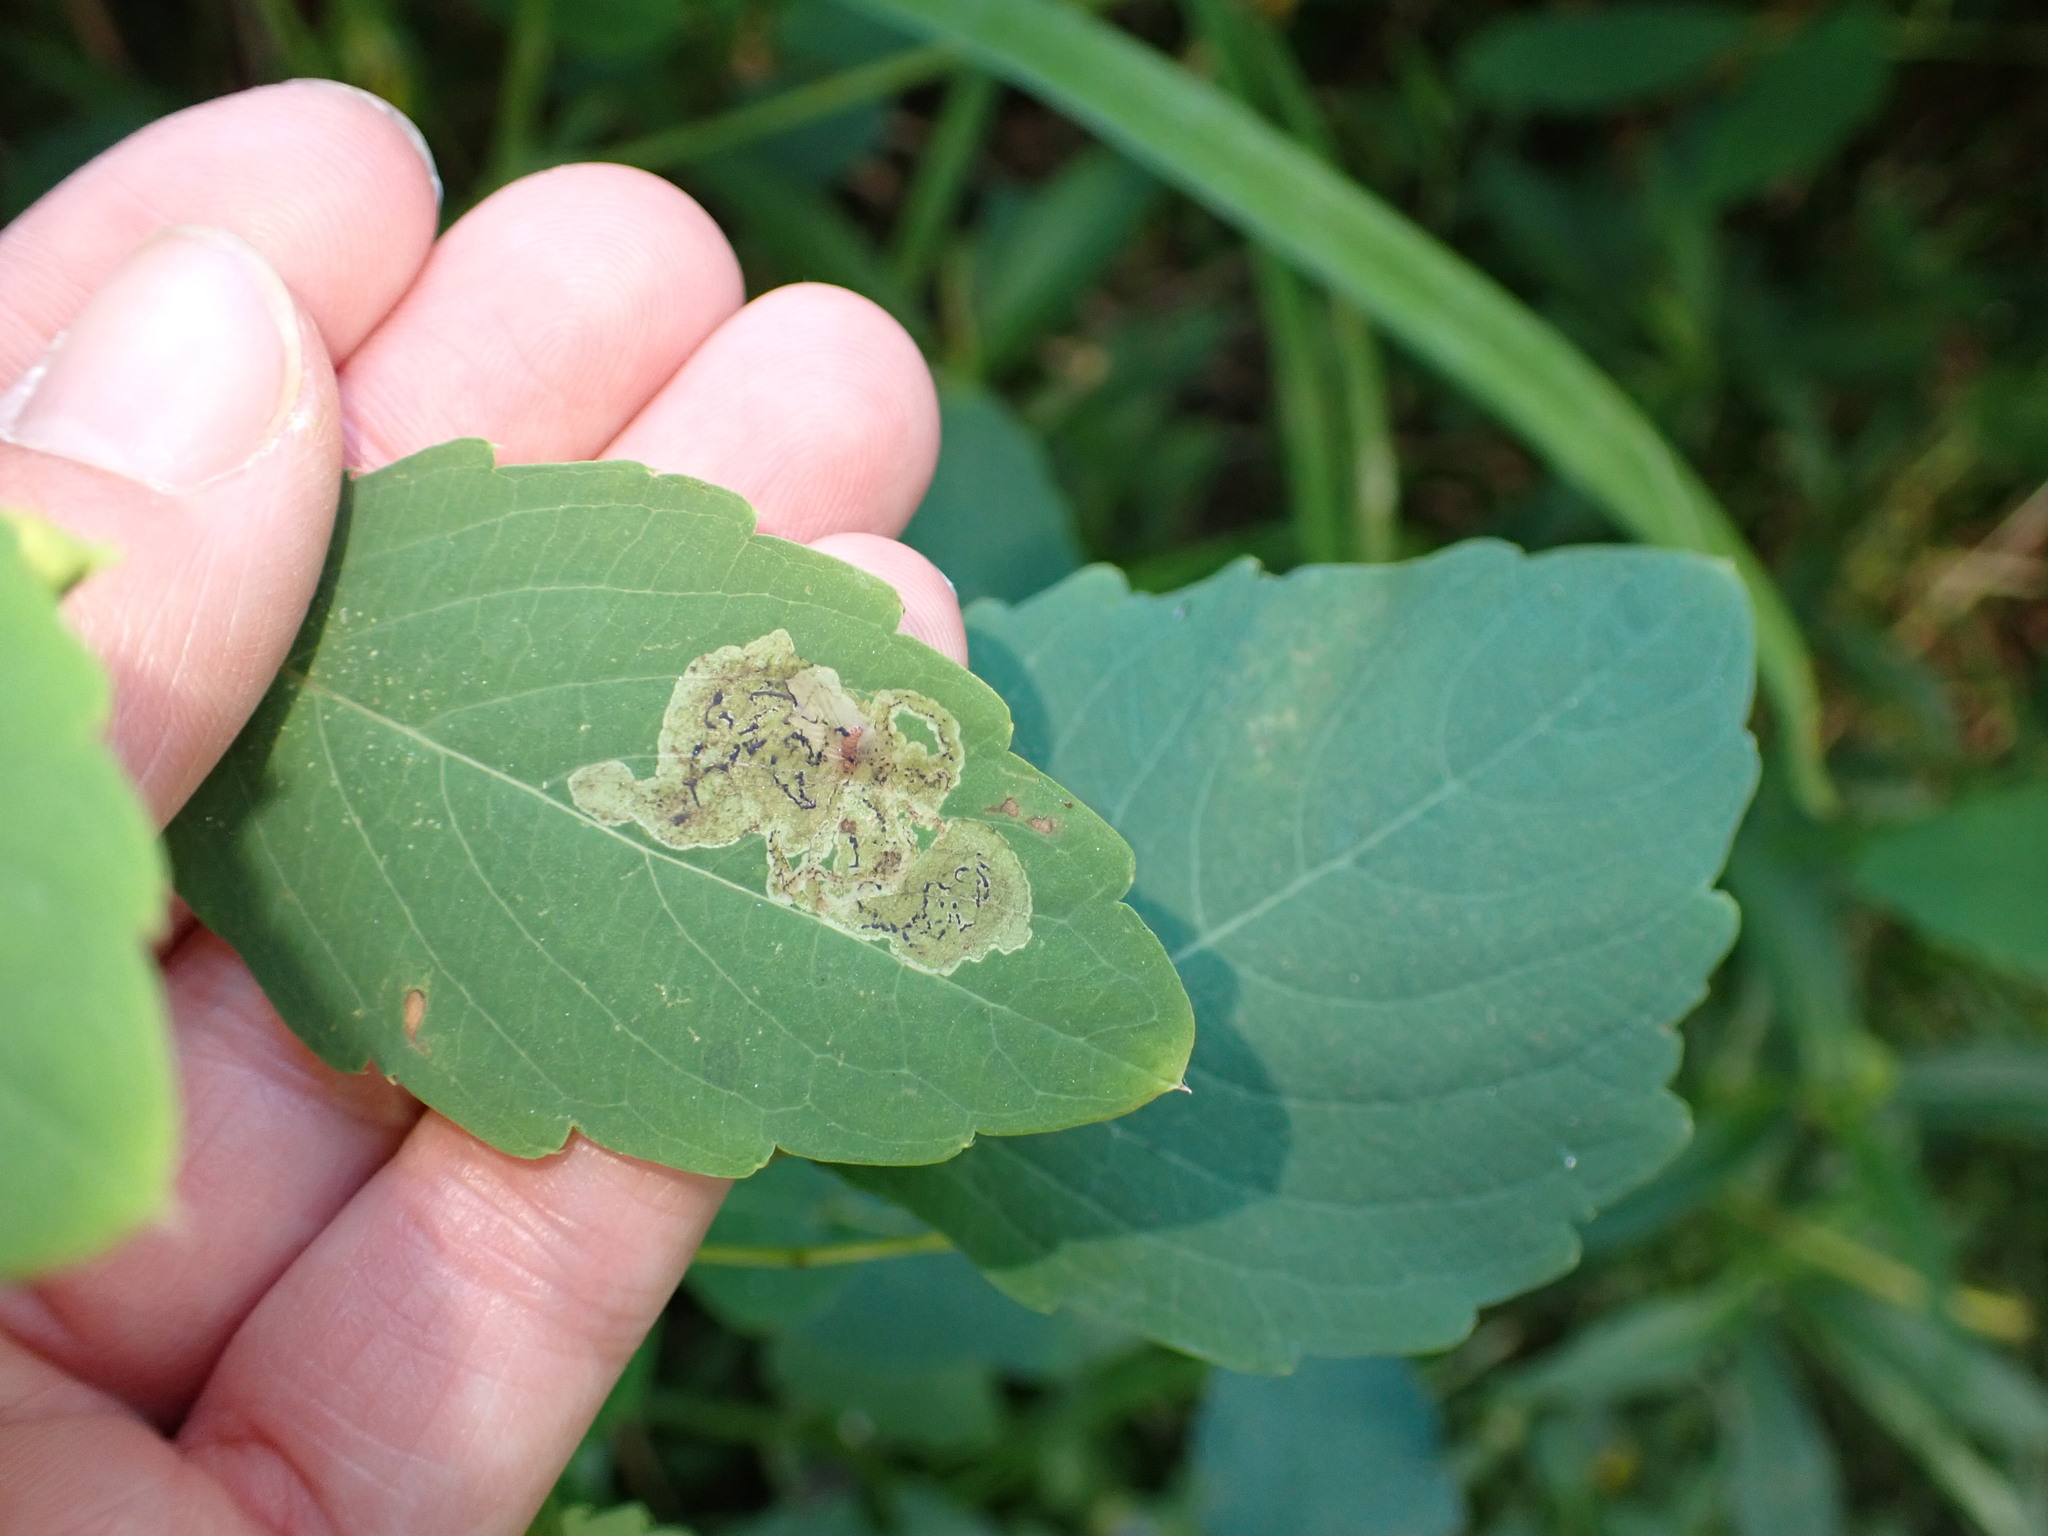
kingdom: Animalia
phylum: Arthropoda
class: Insecta
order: Diptera
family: Agromyzidae
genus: Phytoliriomyza
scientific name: Phytoliriomyza melampyga
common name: Jewelweed leaf-miner fly
